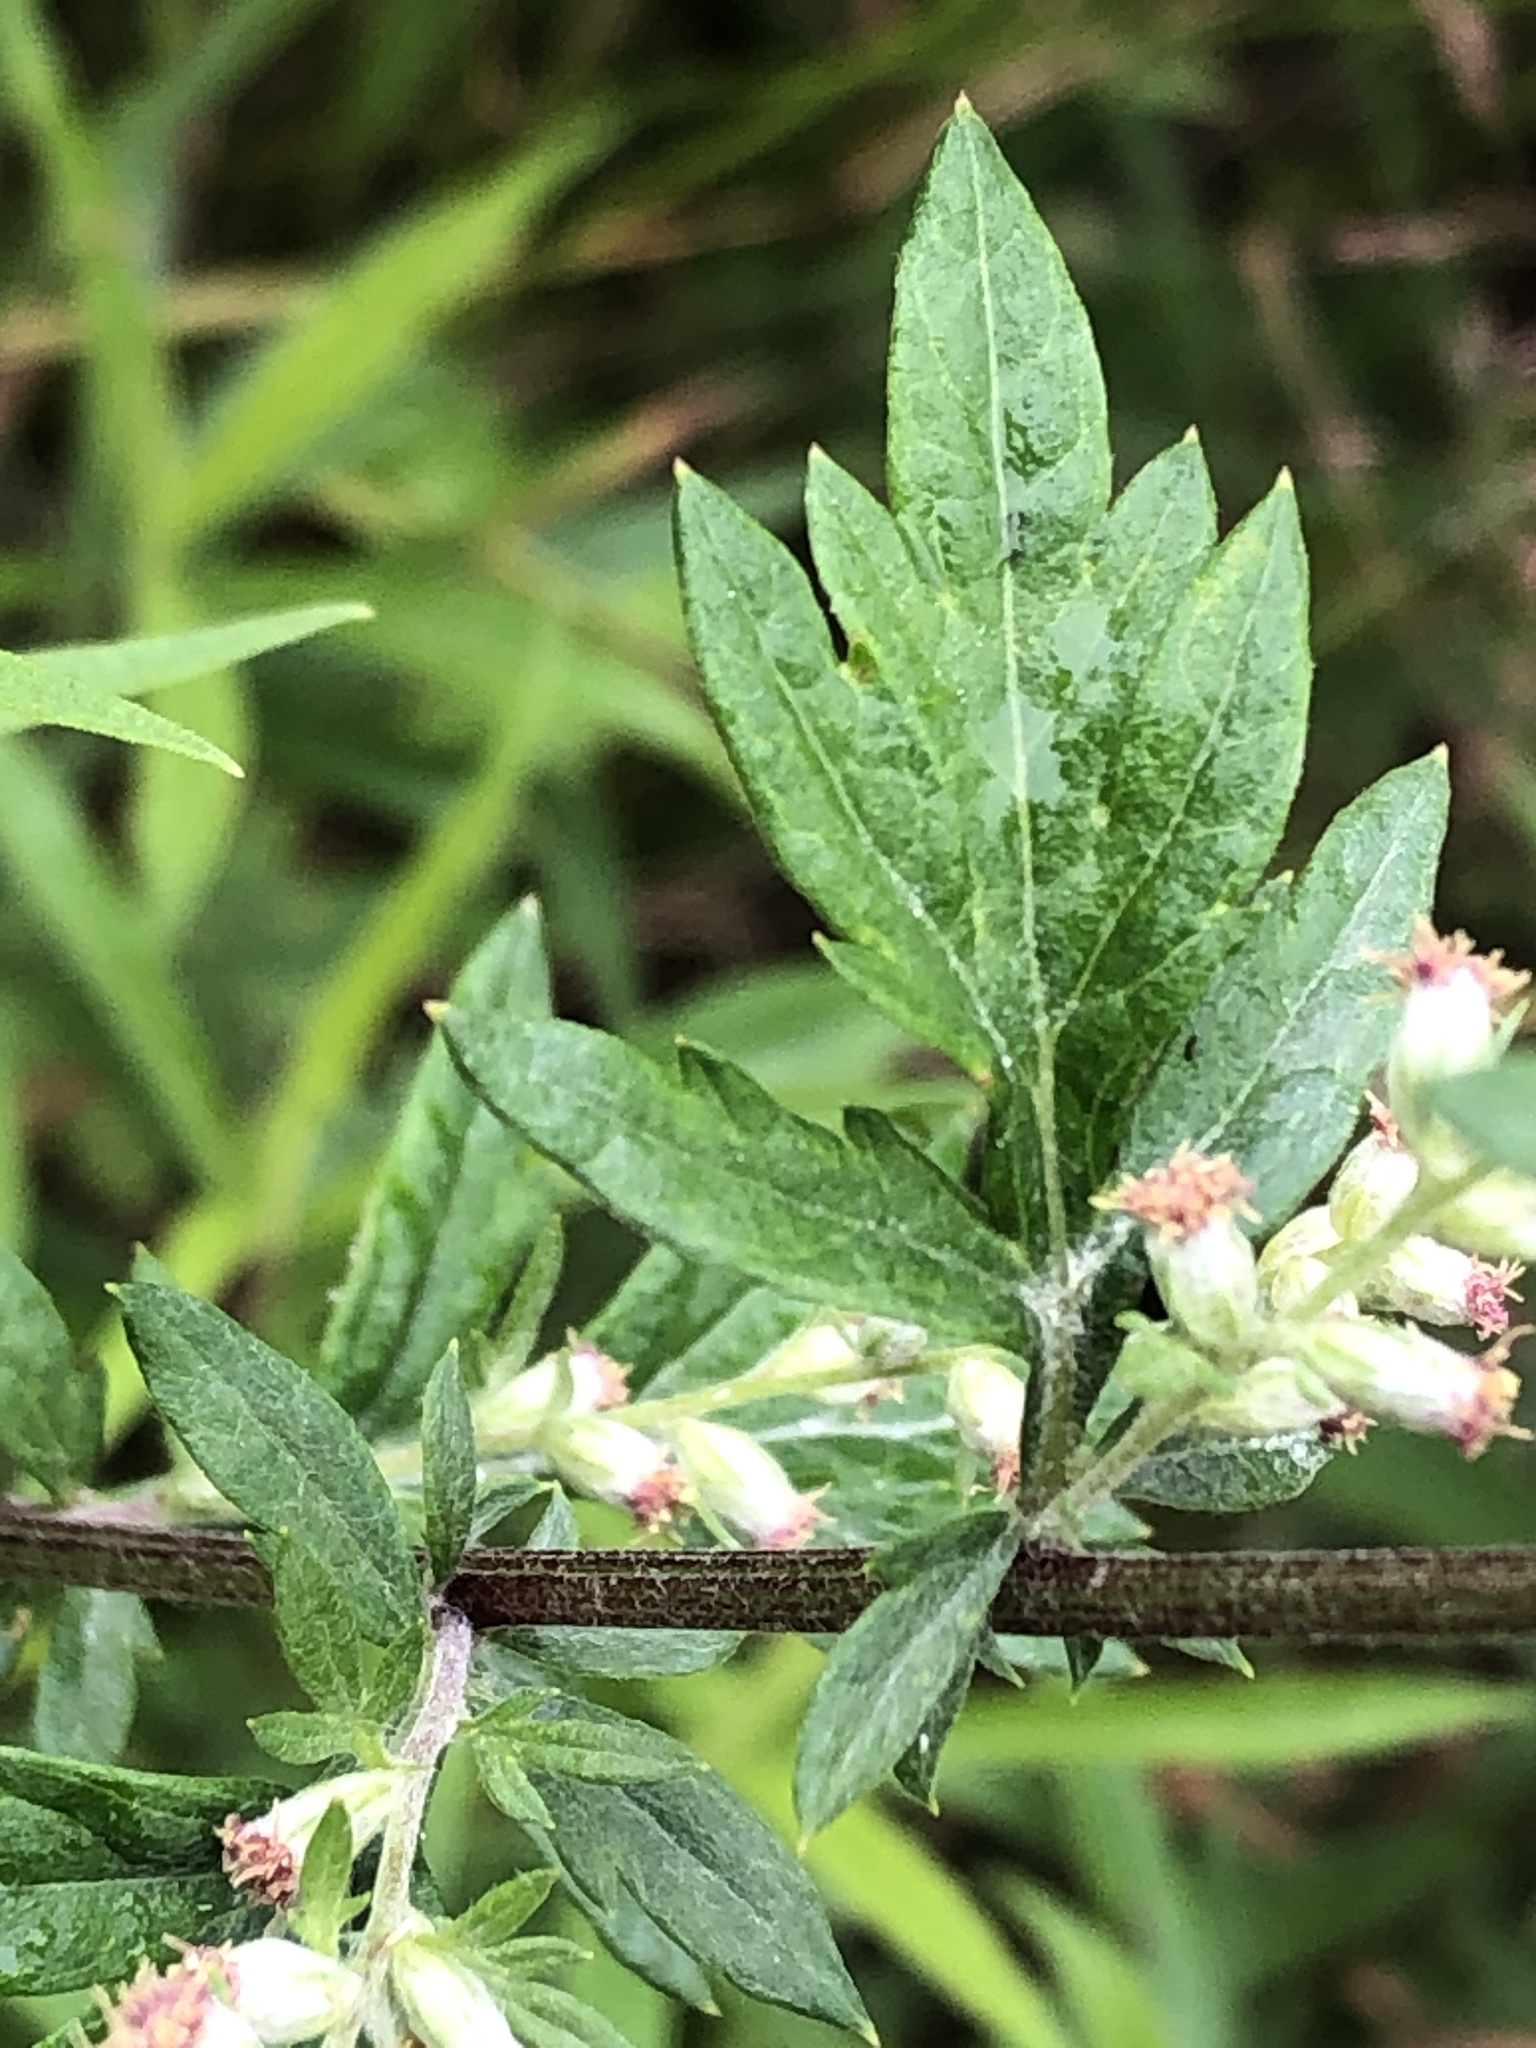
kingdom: Plantae
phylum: Tracheophyta
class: Magnoliopsida
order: Asterales
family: Asteraceae
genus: Artemisia
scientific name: Artemisia vulgaris
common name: Mugwort
